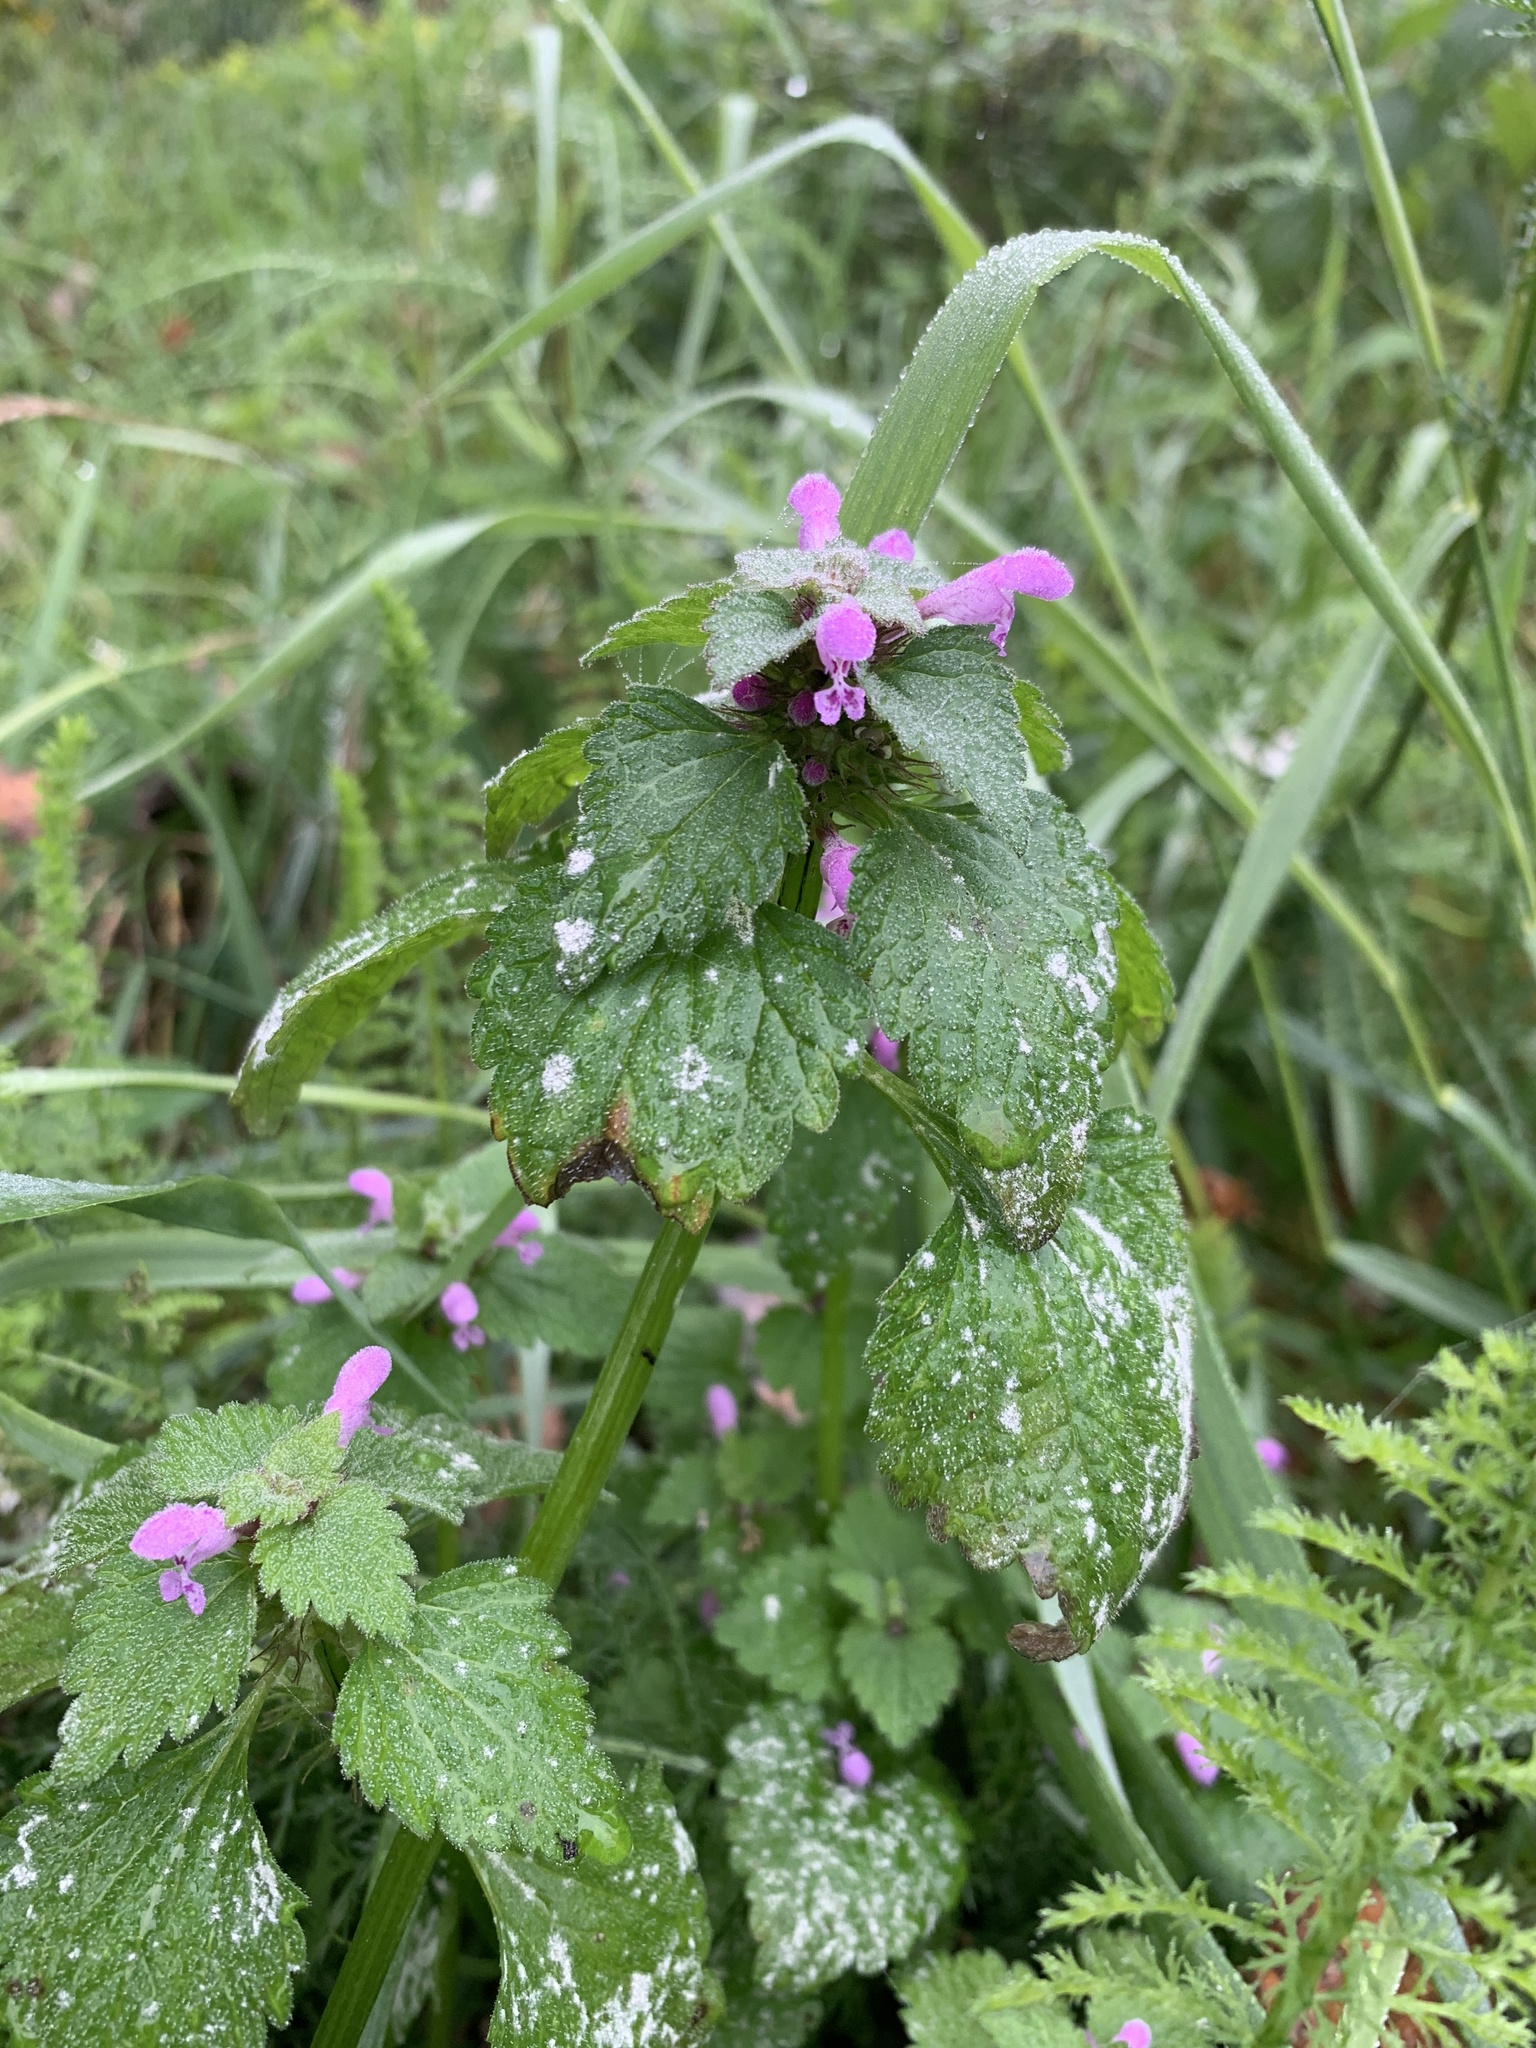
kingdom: Plantae
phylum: Tracheophyta
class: Magnoliopsida
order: Lamiales
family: Lamiaceae
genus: Lamium
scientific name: Lamium purpureum
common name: Red dead-nettle
